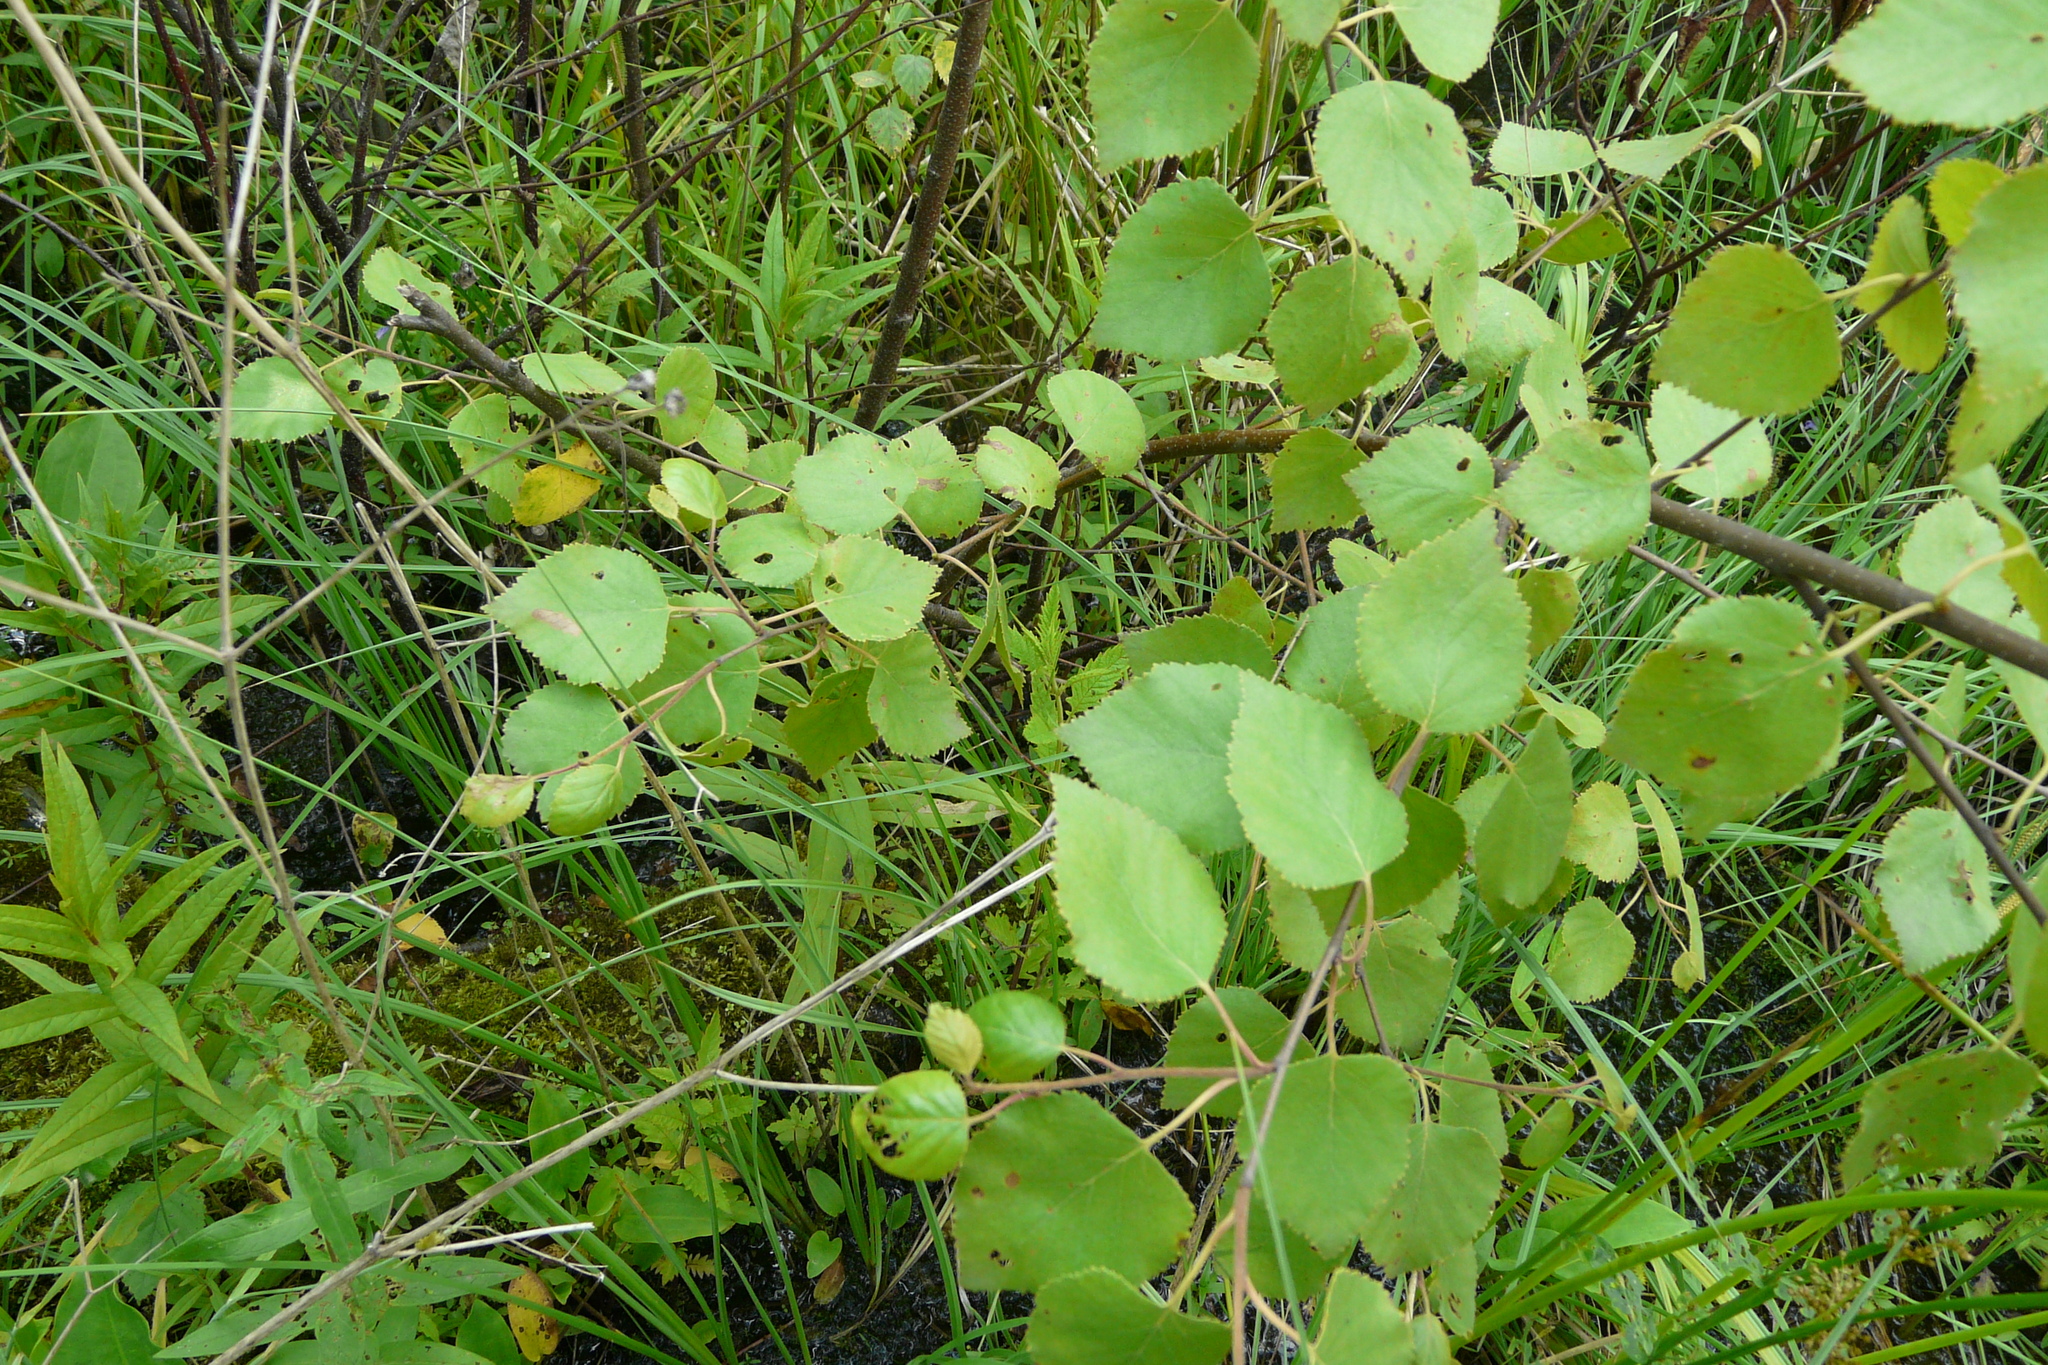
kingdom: Plantae
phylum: Tracheophyta
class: Magnoliopsida
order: Fagales
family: Betulaceae
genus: Betula
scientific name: Betula pubescens
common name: Downy birch
